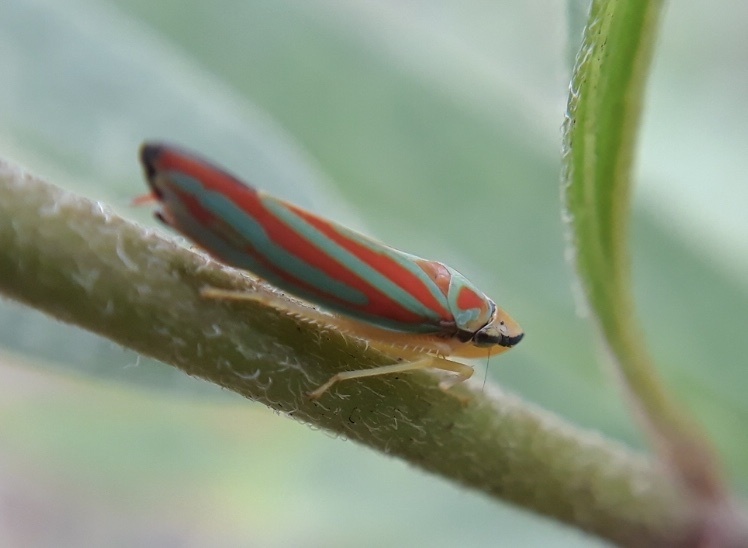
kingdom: Animalia
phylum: Arthropoda
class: Insecta
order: Hemiptera
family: Cicadellidae
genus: Graphocephala
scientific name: Graphocephala coccinea
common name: Candy-striped leafhopper
